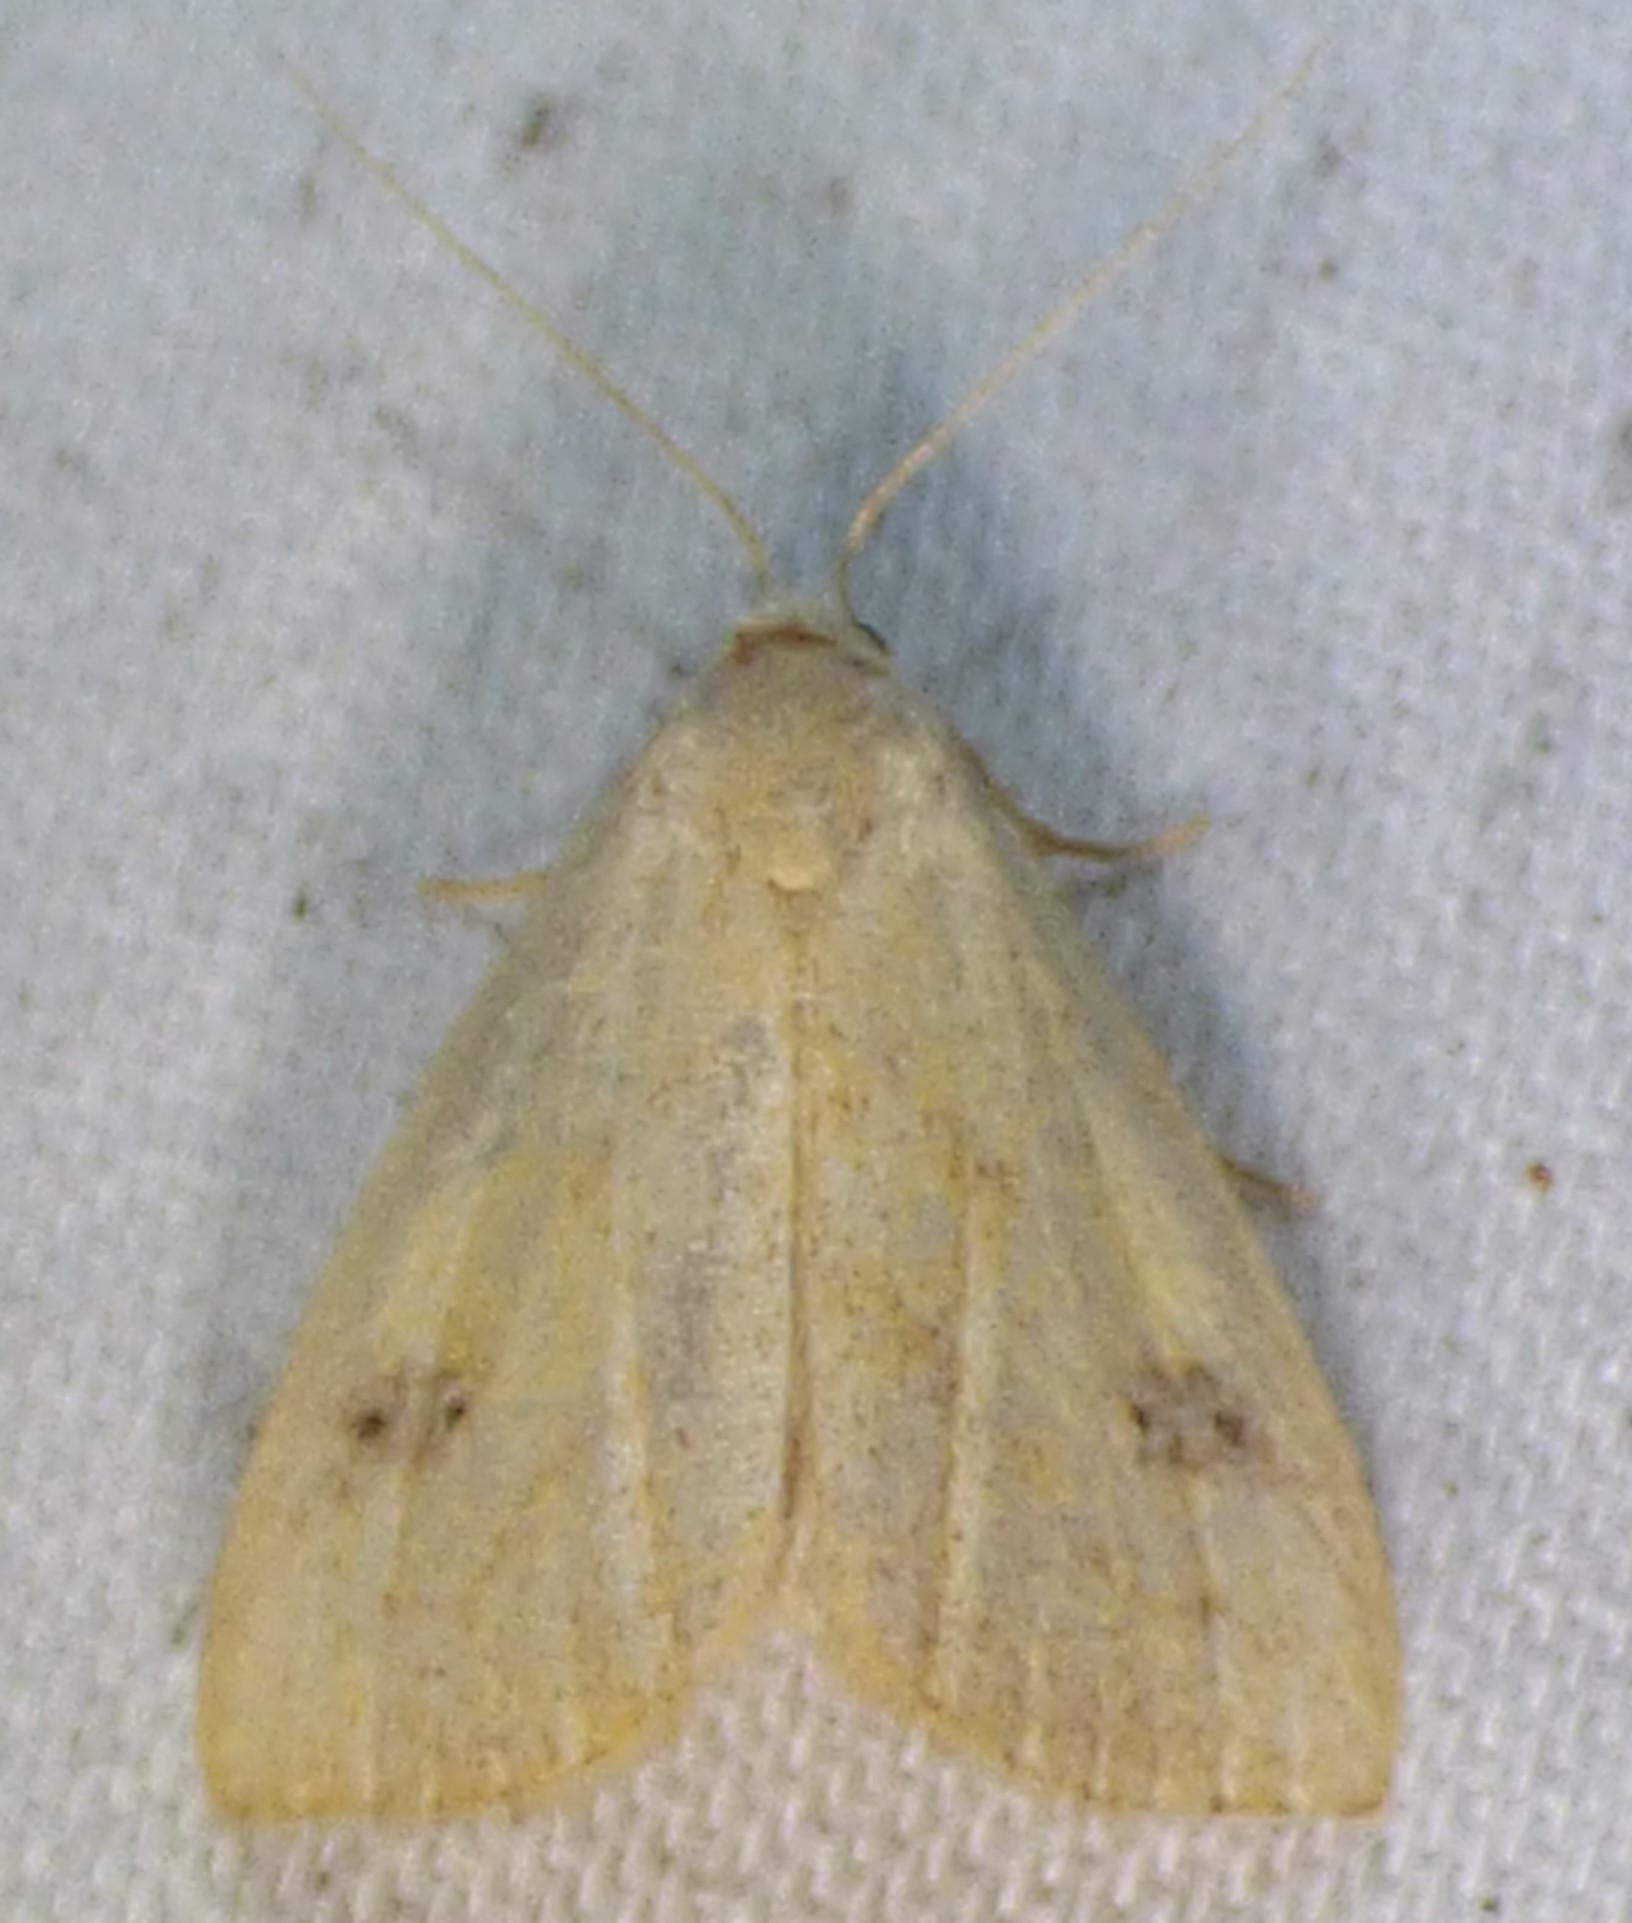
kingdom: Animalia
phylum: Arthropoda
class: Insecta
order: Lepidoptera
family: Erebidae
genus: Rivula
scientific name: Rivula propinqualis
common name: Spotted grass moth
